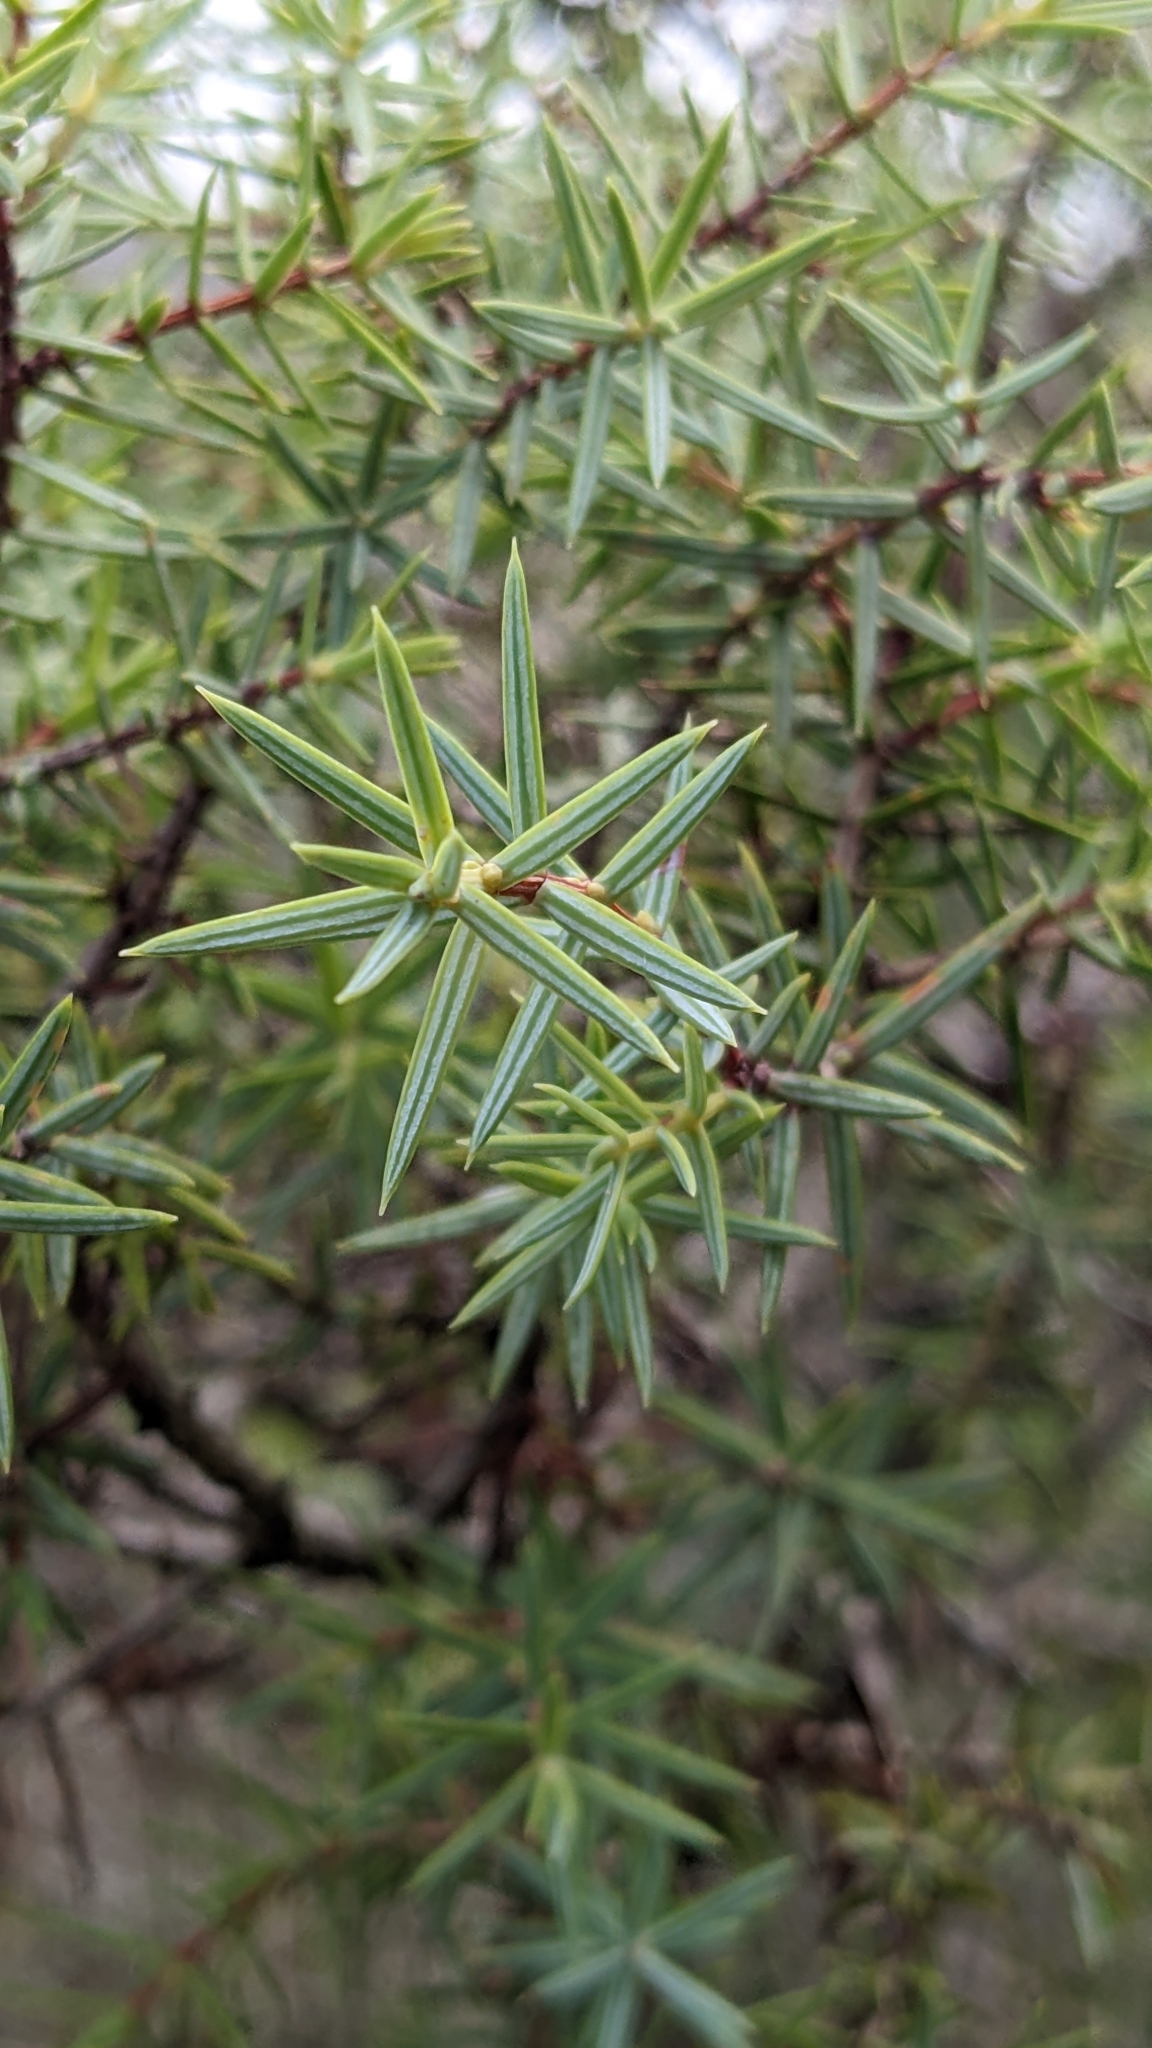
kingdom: Plantae
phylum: Tracheophyta
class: Pinopsida
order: Pinales
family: Cupressaceae
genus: Juniperus
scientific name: Juniperus oxycedrus
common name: Prickly juniper
